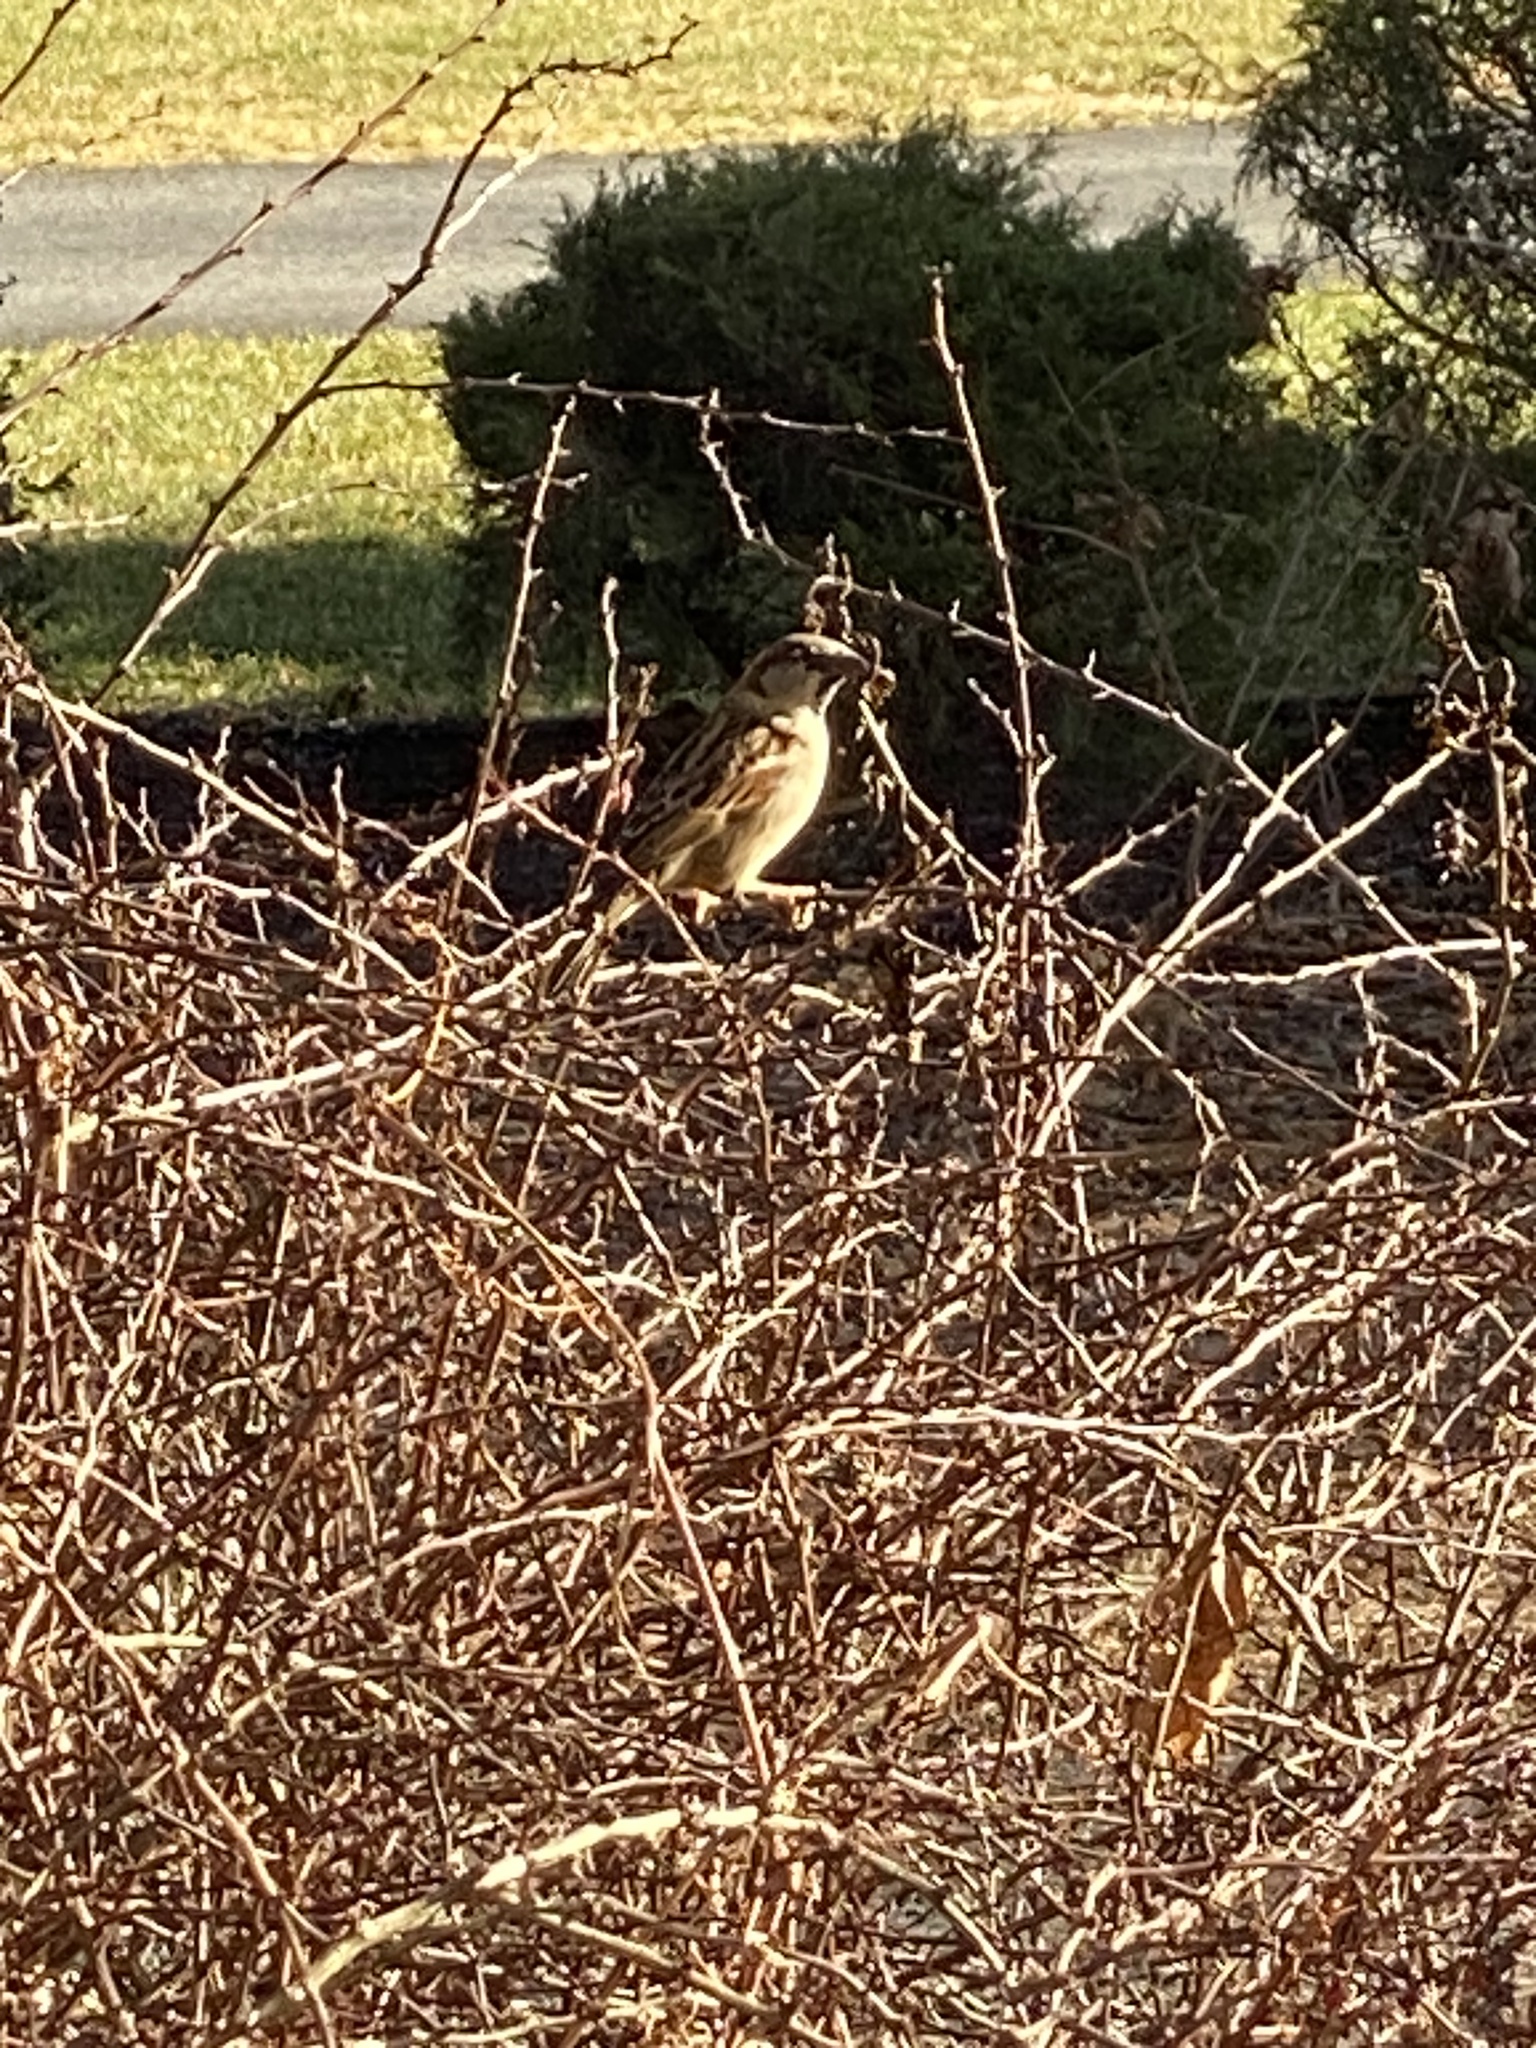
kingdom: Animalia
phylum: Chordata
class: Aves
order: Passeriformes
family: Passeridae
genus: Passer
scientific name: Passer domesticus
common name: House sparrow
